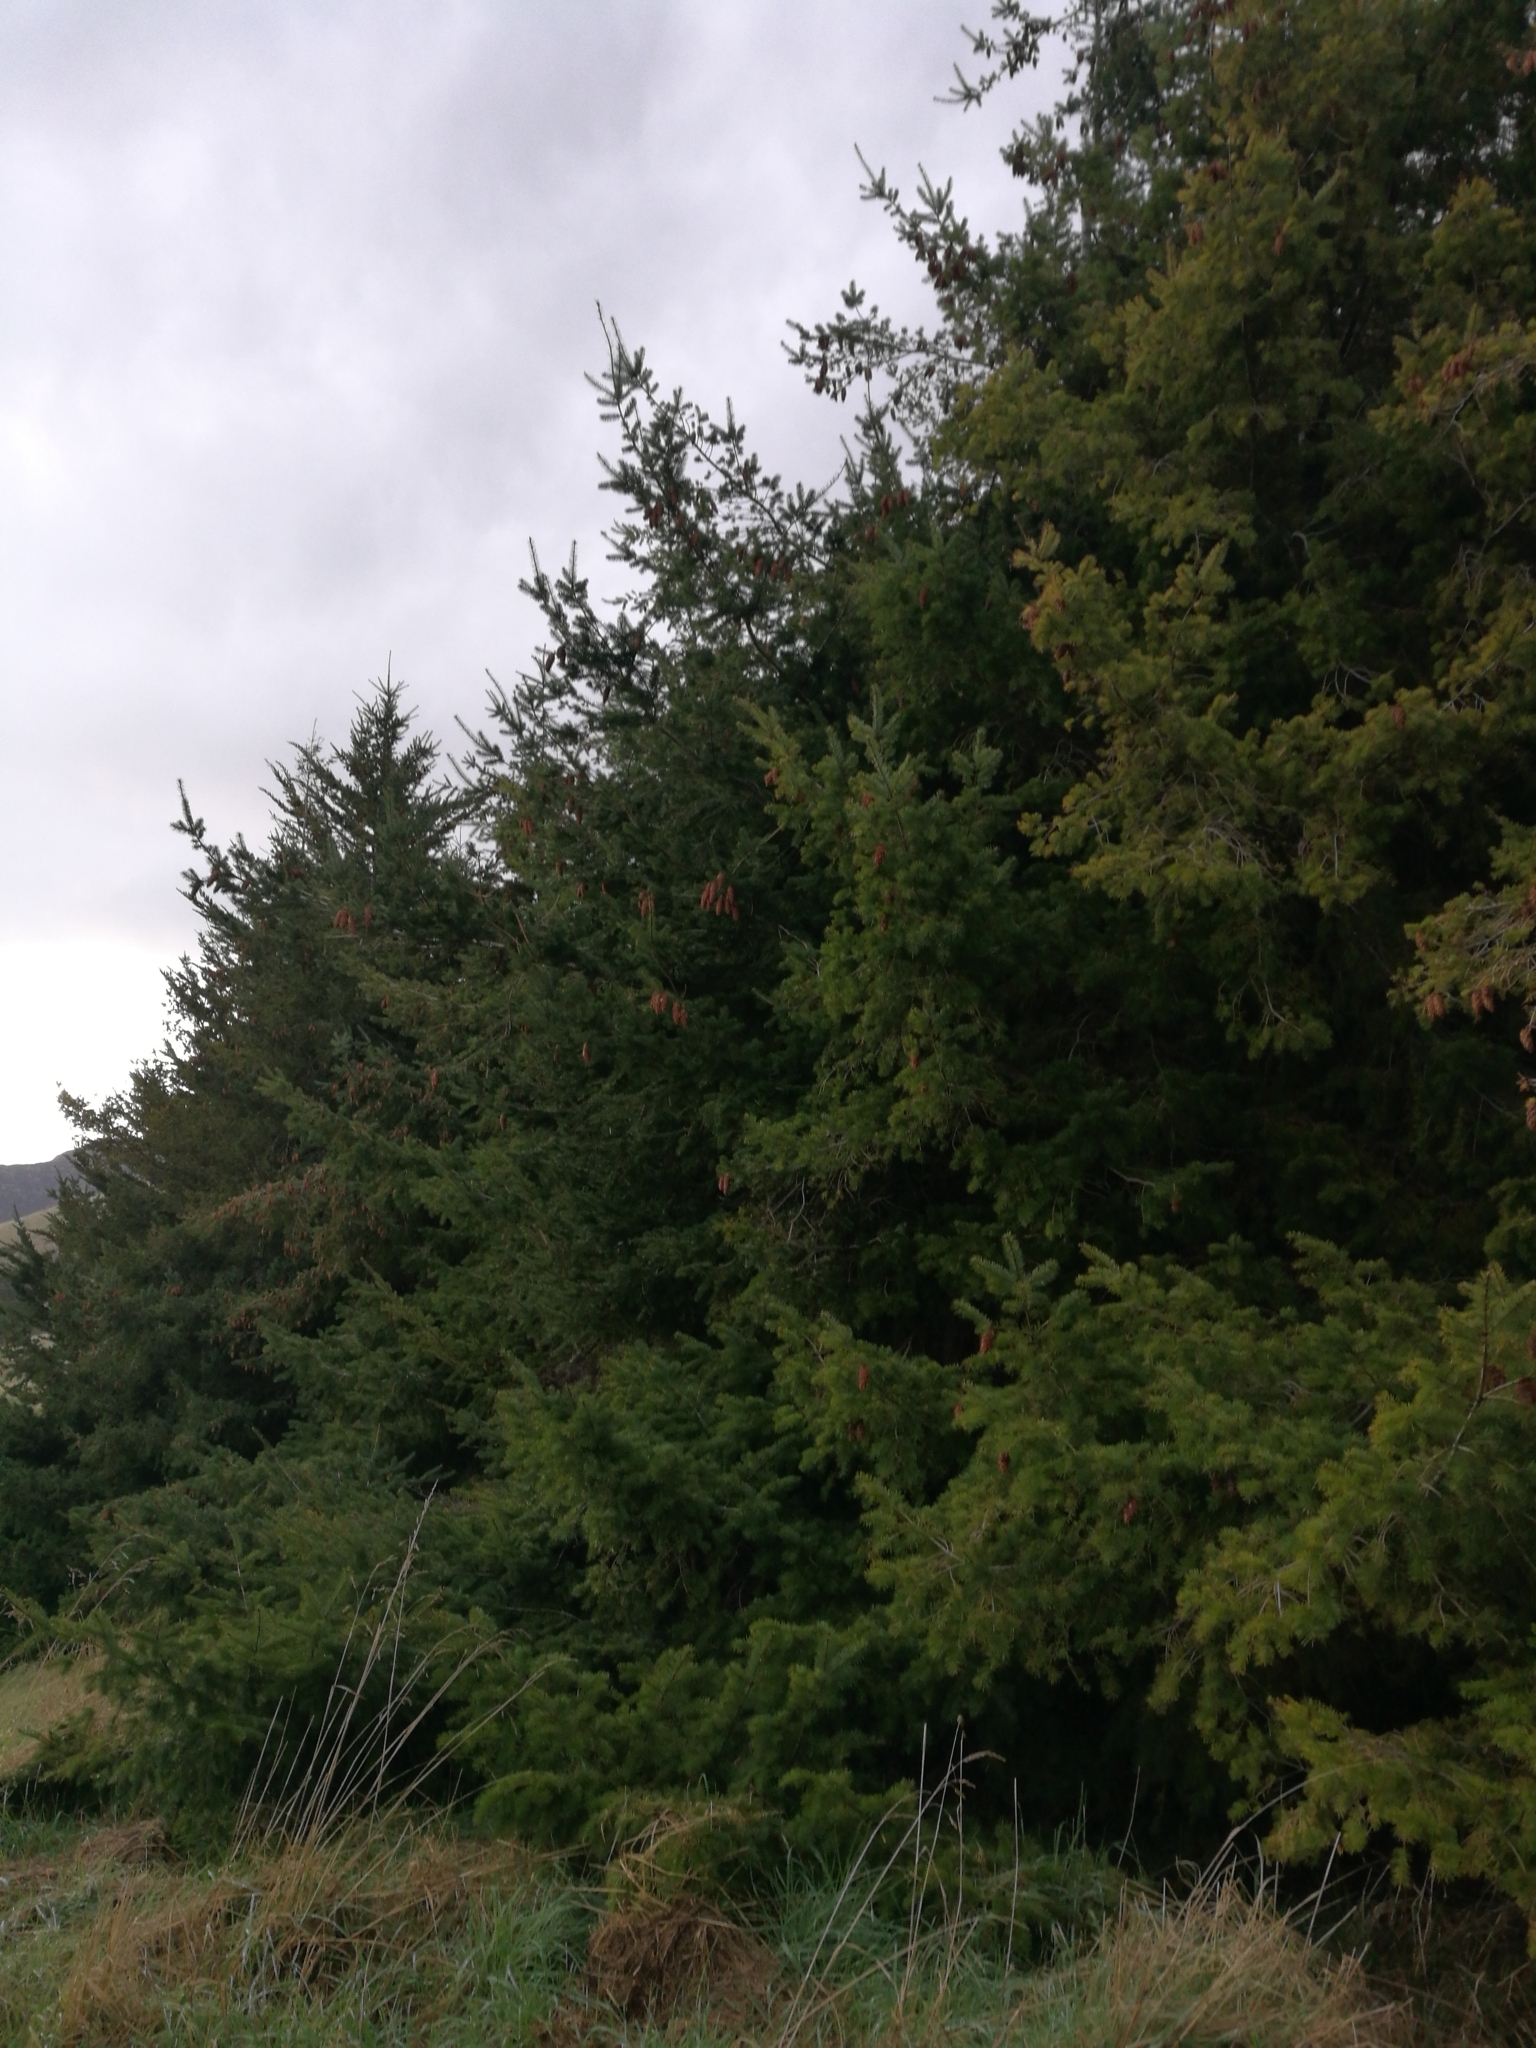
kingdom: Plantae
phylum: Tracheophyta
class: Pinopsida
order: Pinales
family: Pinaceae
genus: Pseudotsuga
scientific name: Pseudotsuga menziesii
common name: Douglas fir
